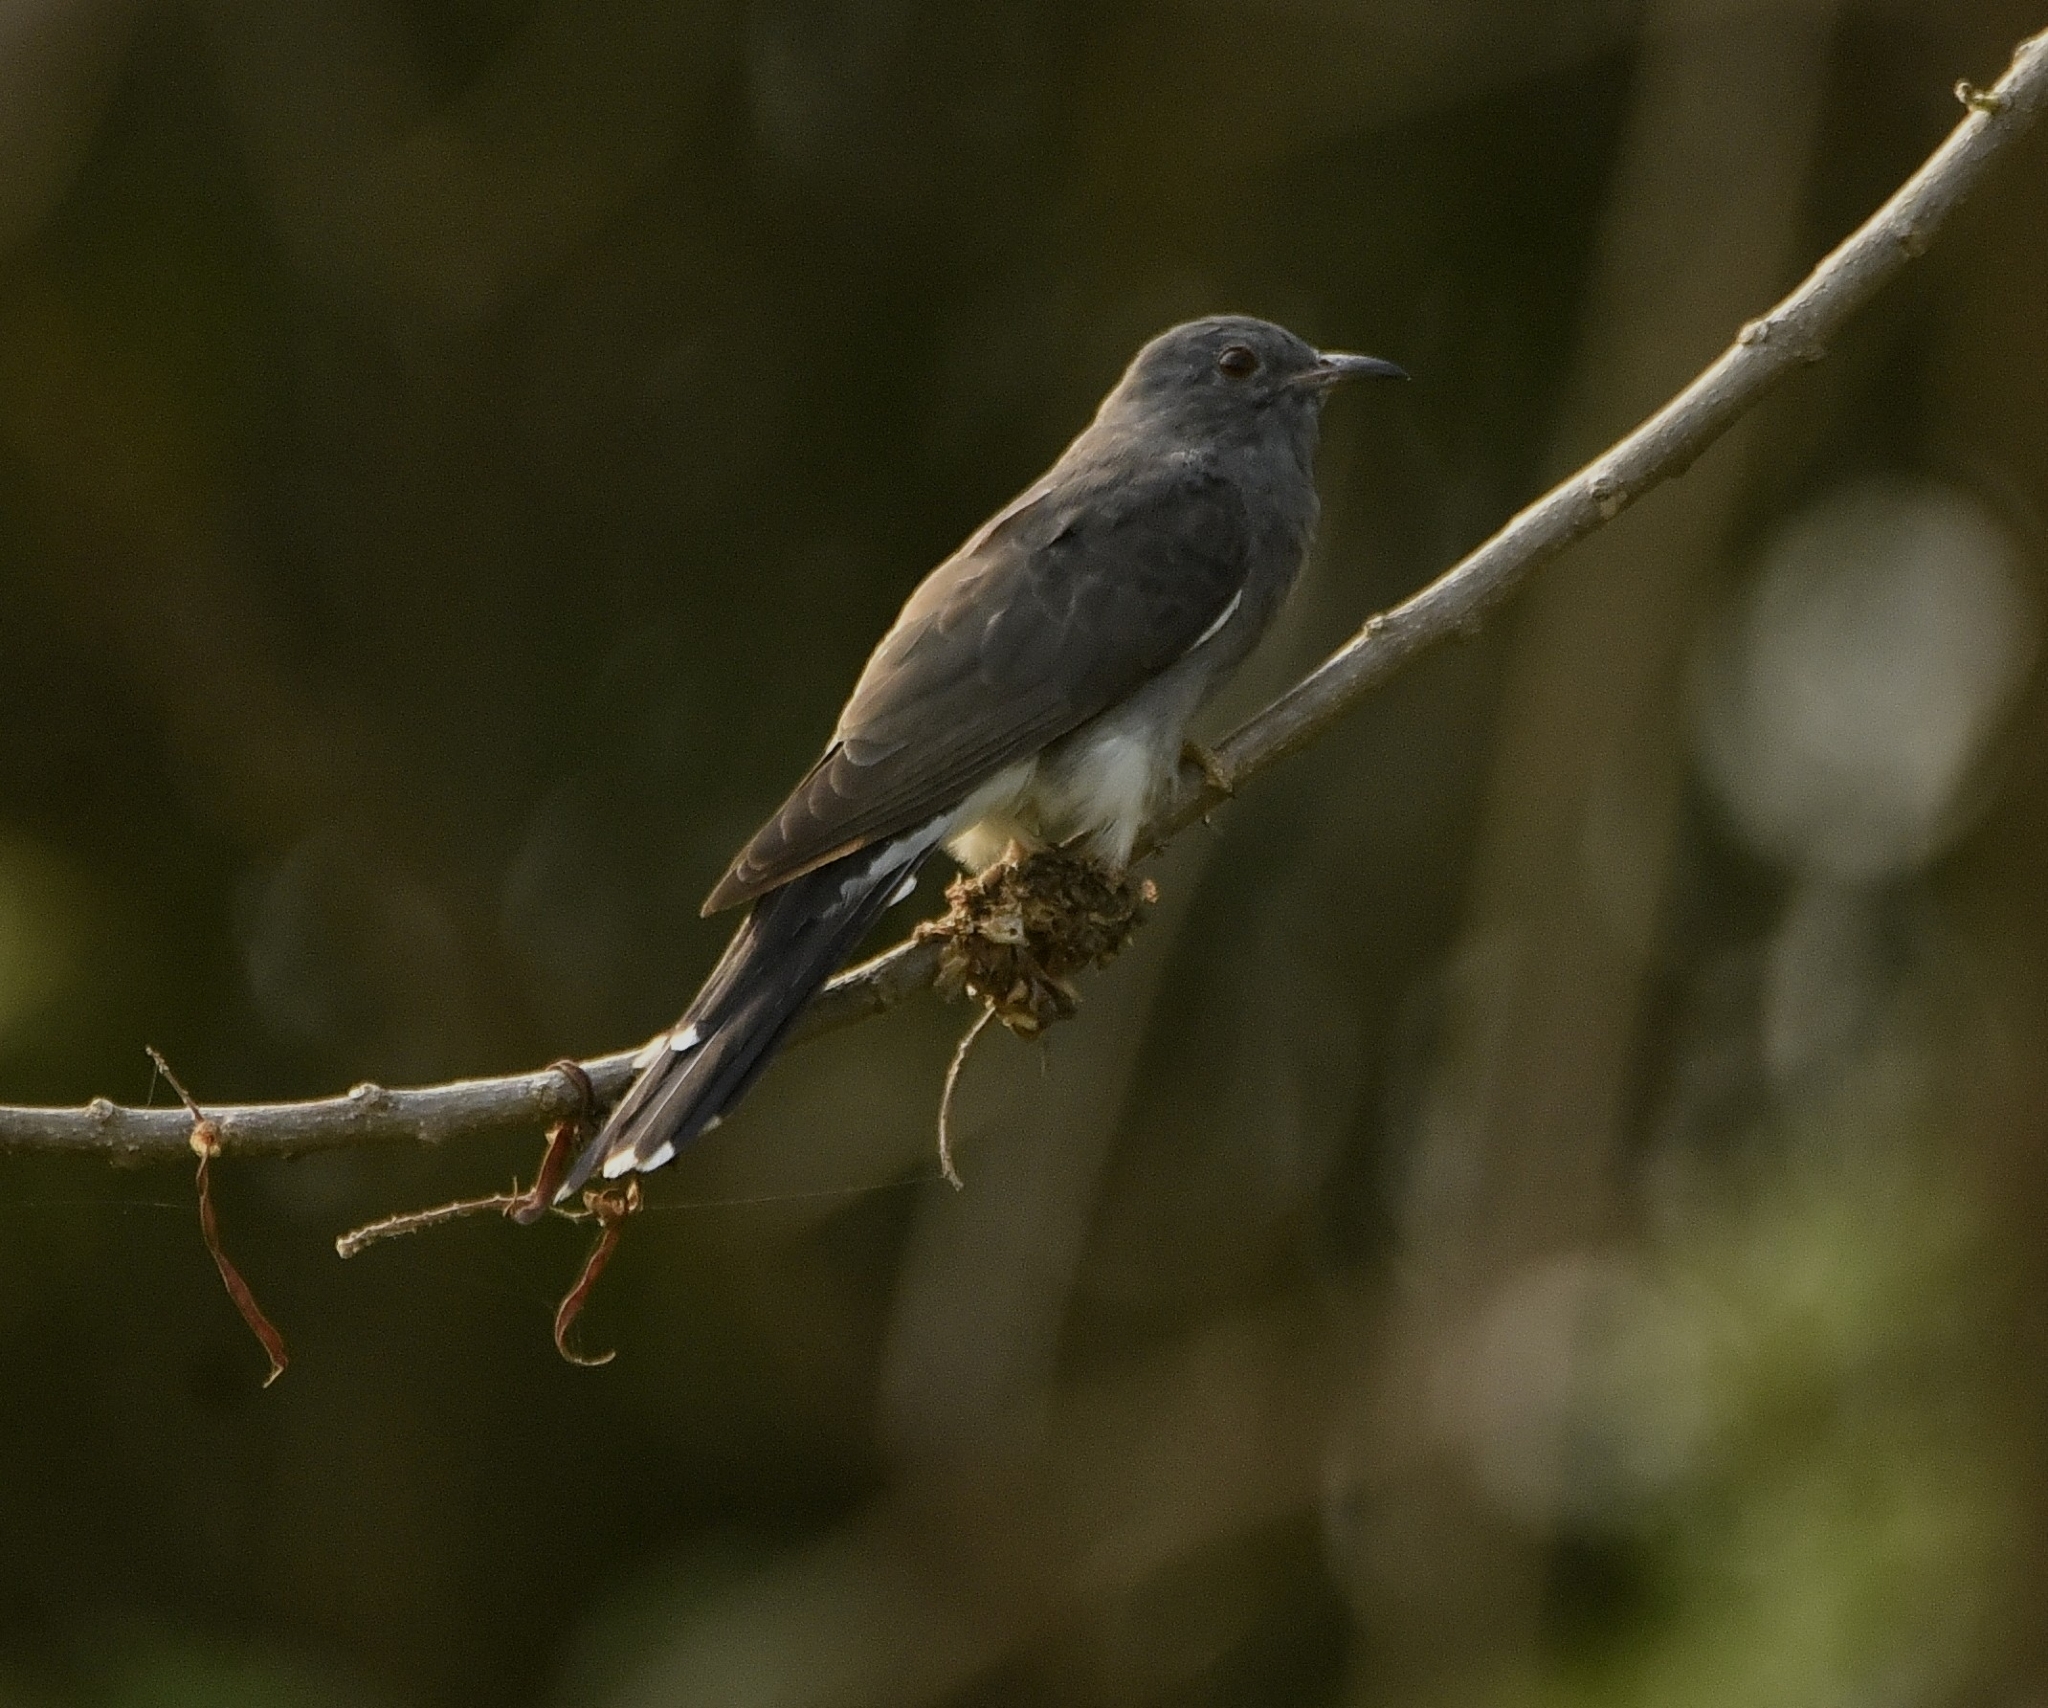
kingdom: Animalia
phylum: Chordata
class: Aves
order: Cuculiformes
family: Cuculidae
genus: Cacomantis
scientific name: Cacomantis passerinus
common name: Grey-bellied cuckoo
